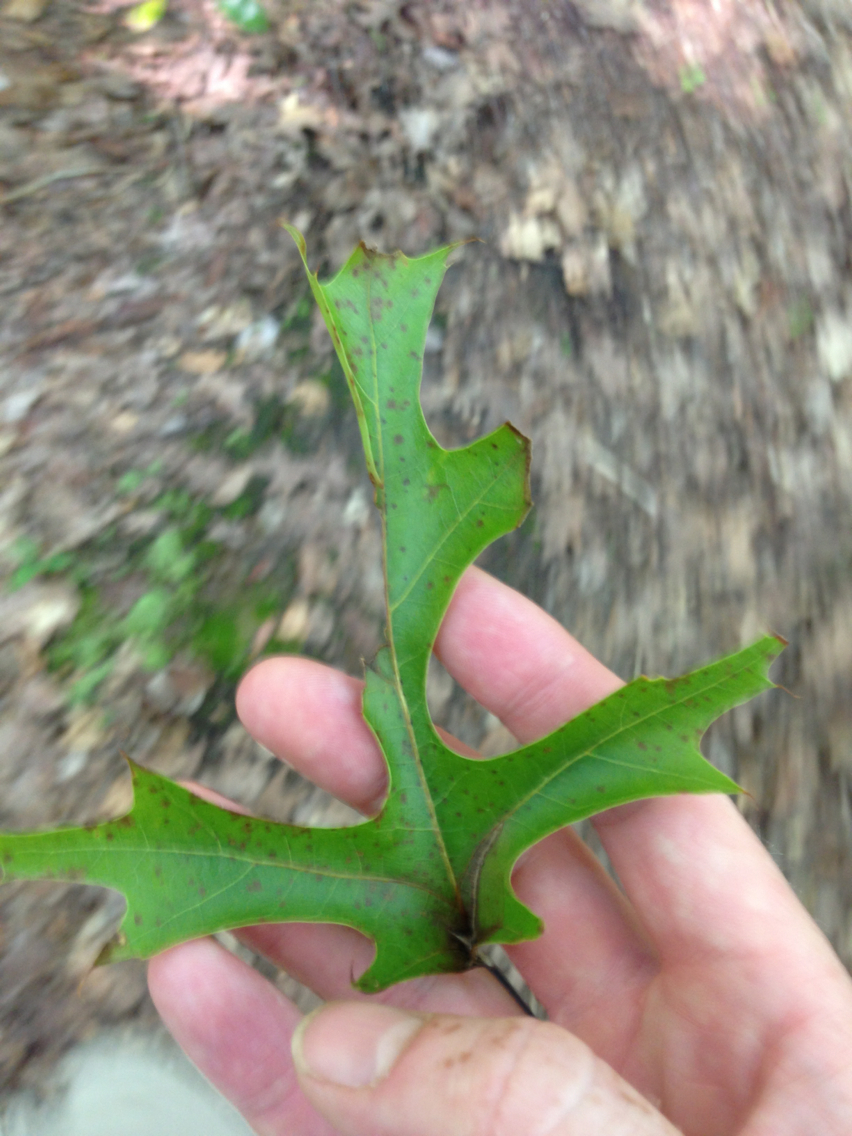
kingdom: Plantae
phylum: Tracheophyta
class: Magnoliopsida
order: Fagales
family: Fagaceae
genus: Quercus
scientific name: Quercus palustris
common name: Pin oak
